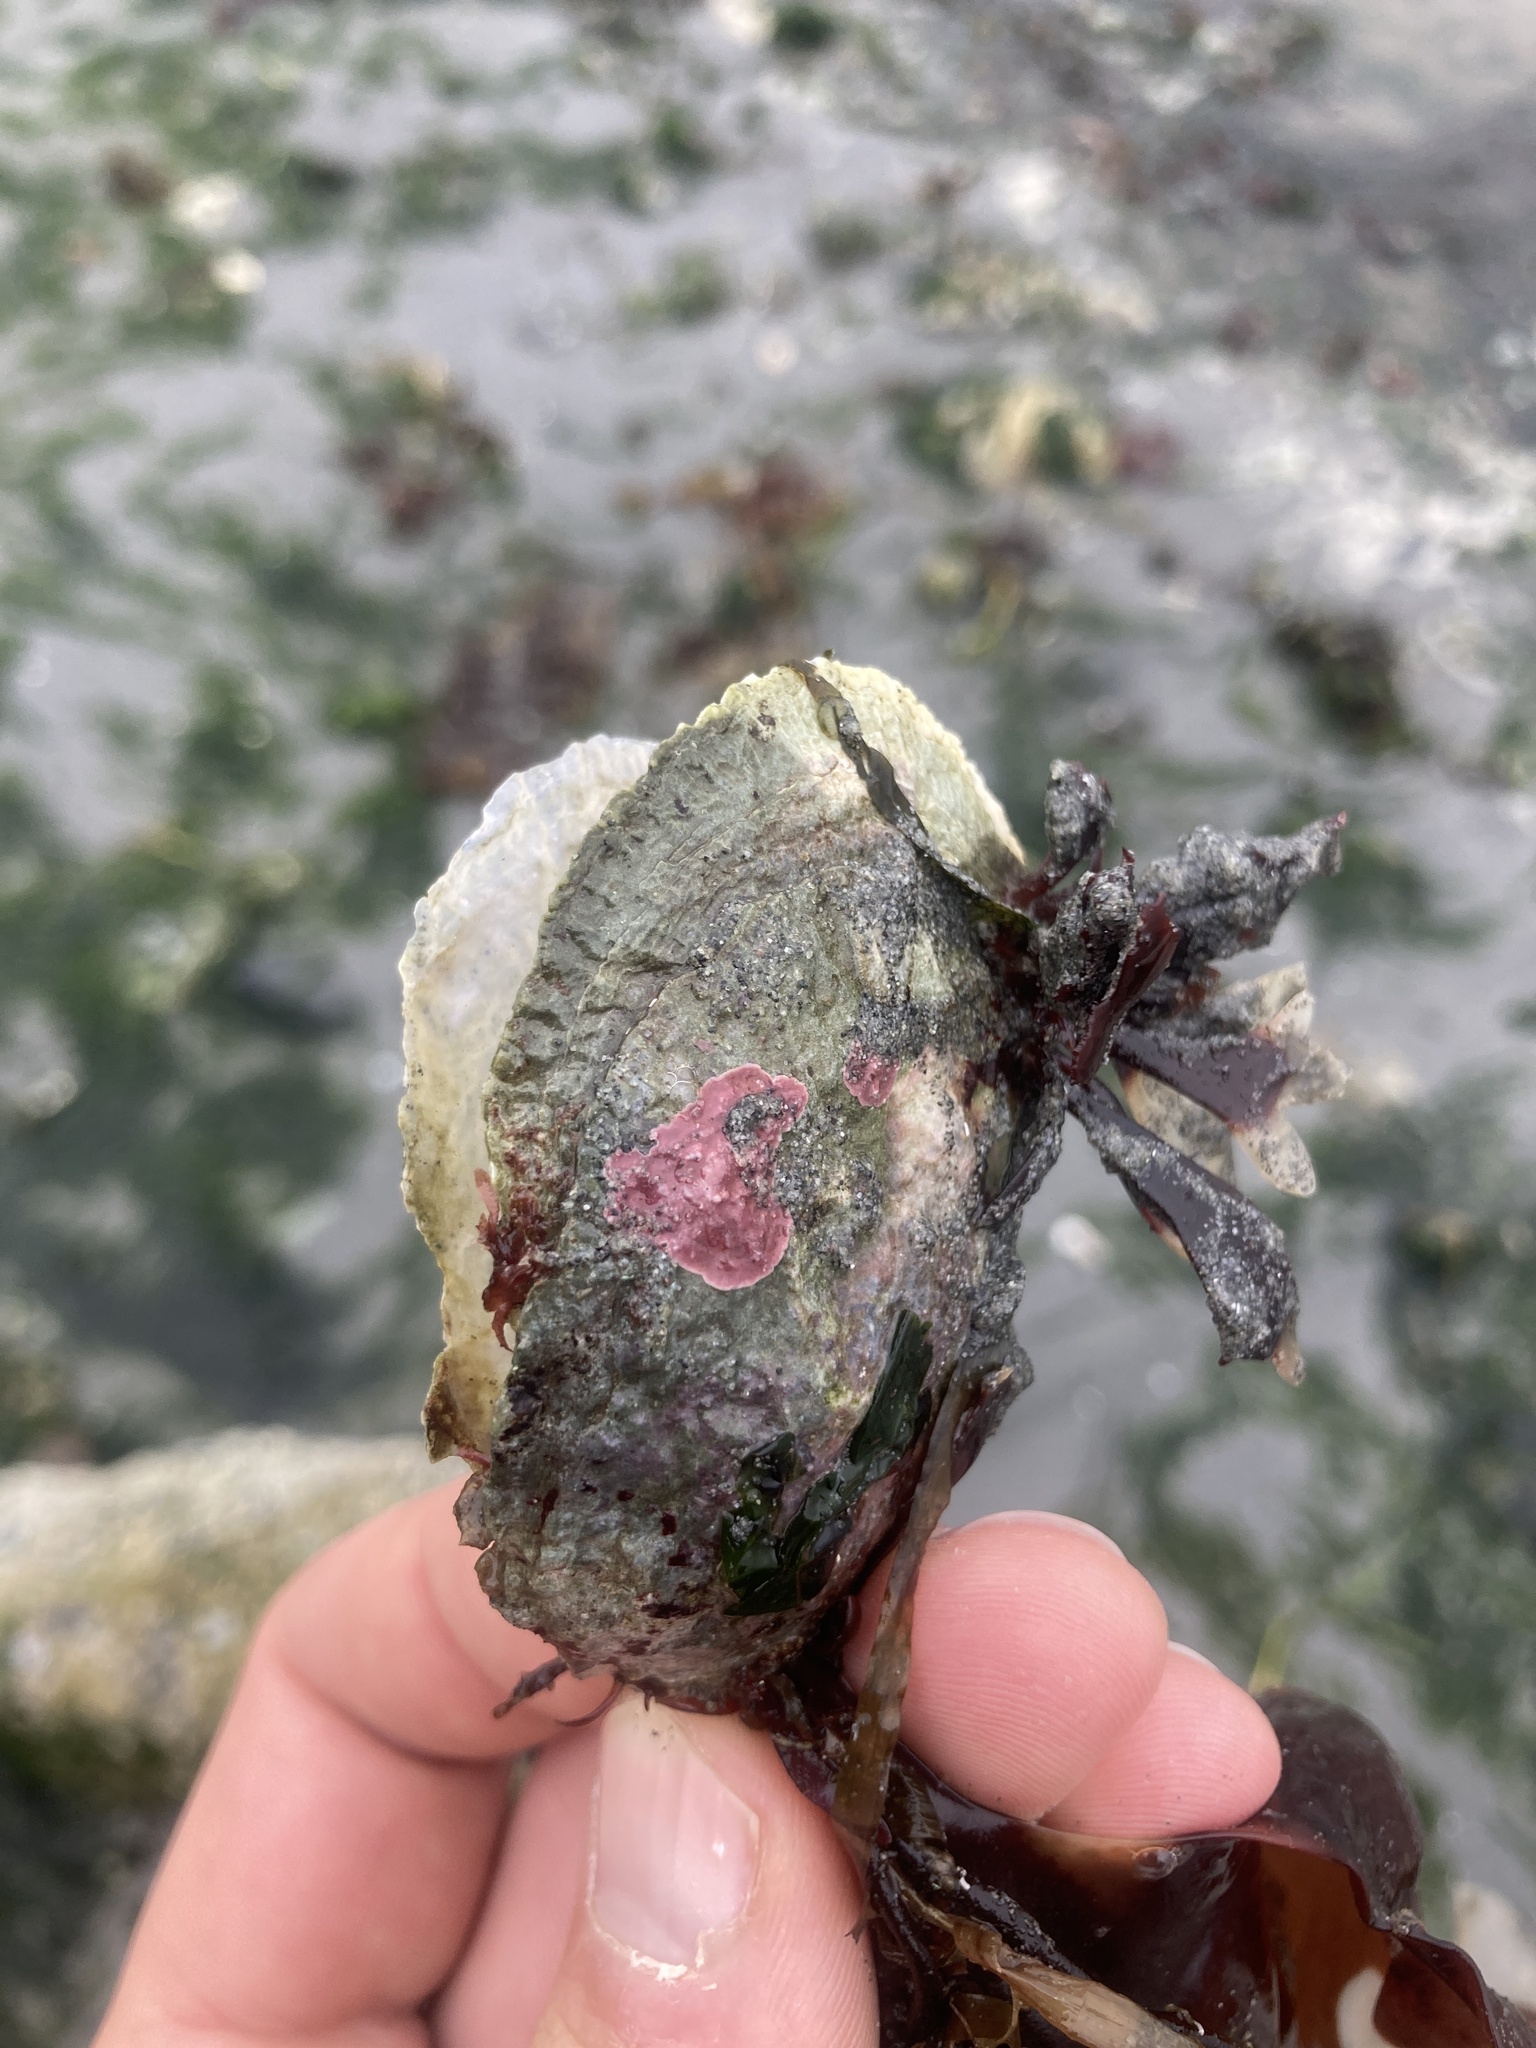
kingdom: Animalia
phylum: Mollusca
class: Bivalvia
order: Pectinida
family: Anomiidae
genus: Pododesmus
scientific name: Pododesmus macrochisma
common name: Alaska jingle
